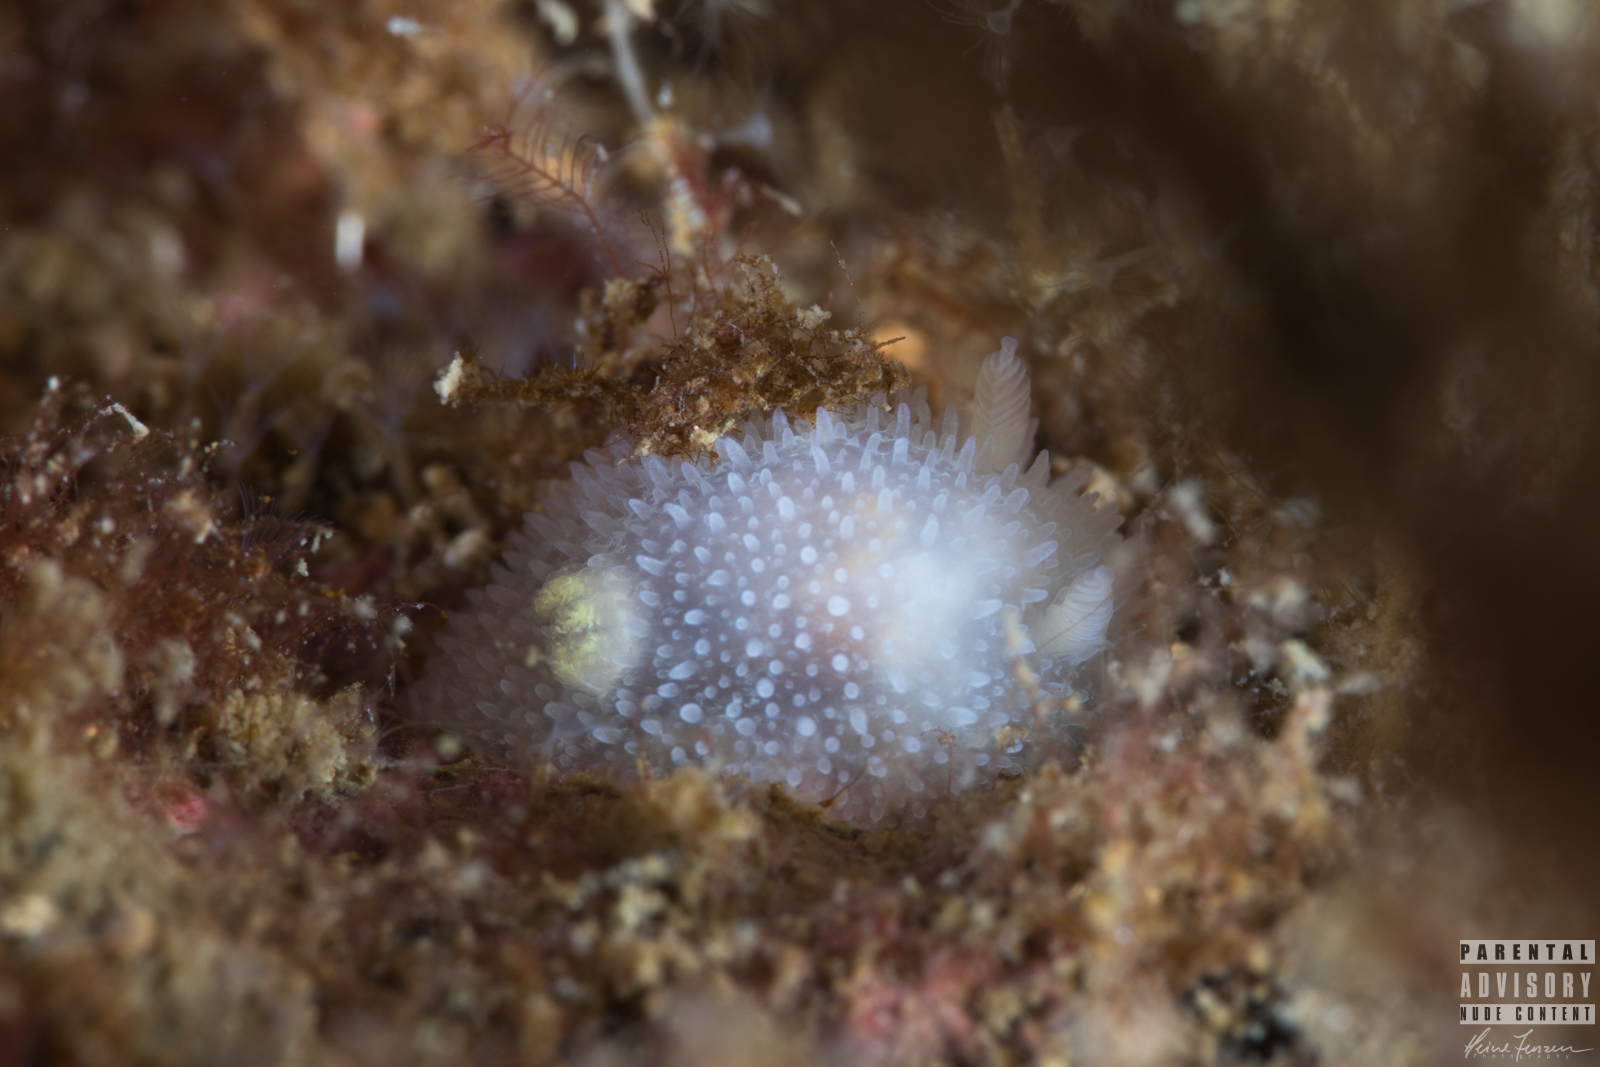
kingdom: Animalia
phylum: Mollusca
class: Gastropoda
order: Nudibranchia
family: Onchidorididae
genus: Acanthodoris
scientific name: Acanthodoris pilosa
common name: Hairy spiny doris
